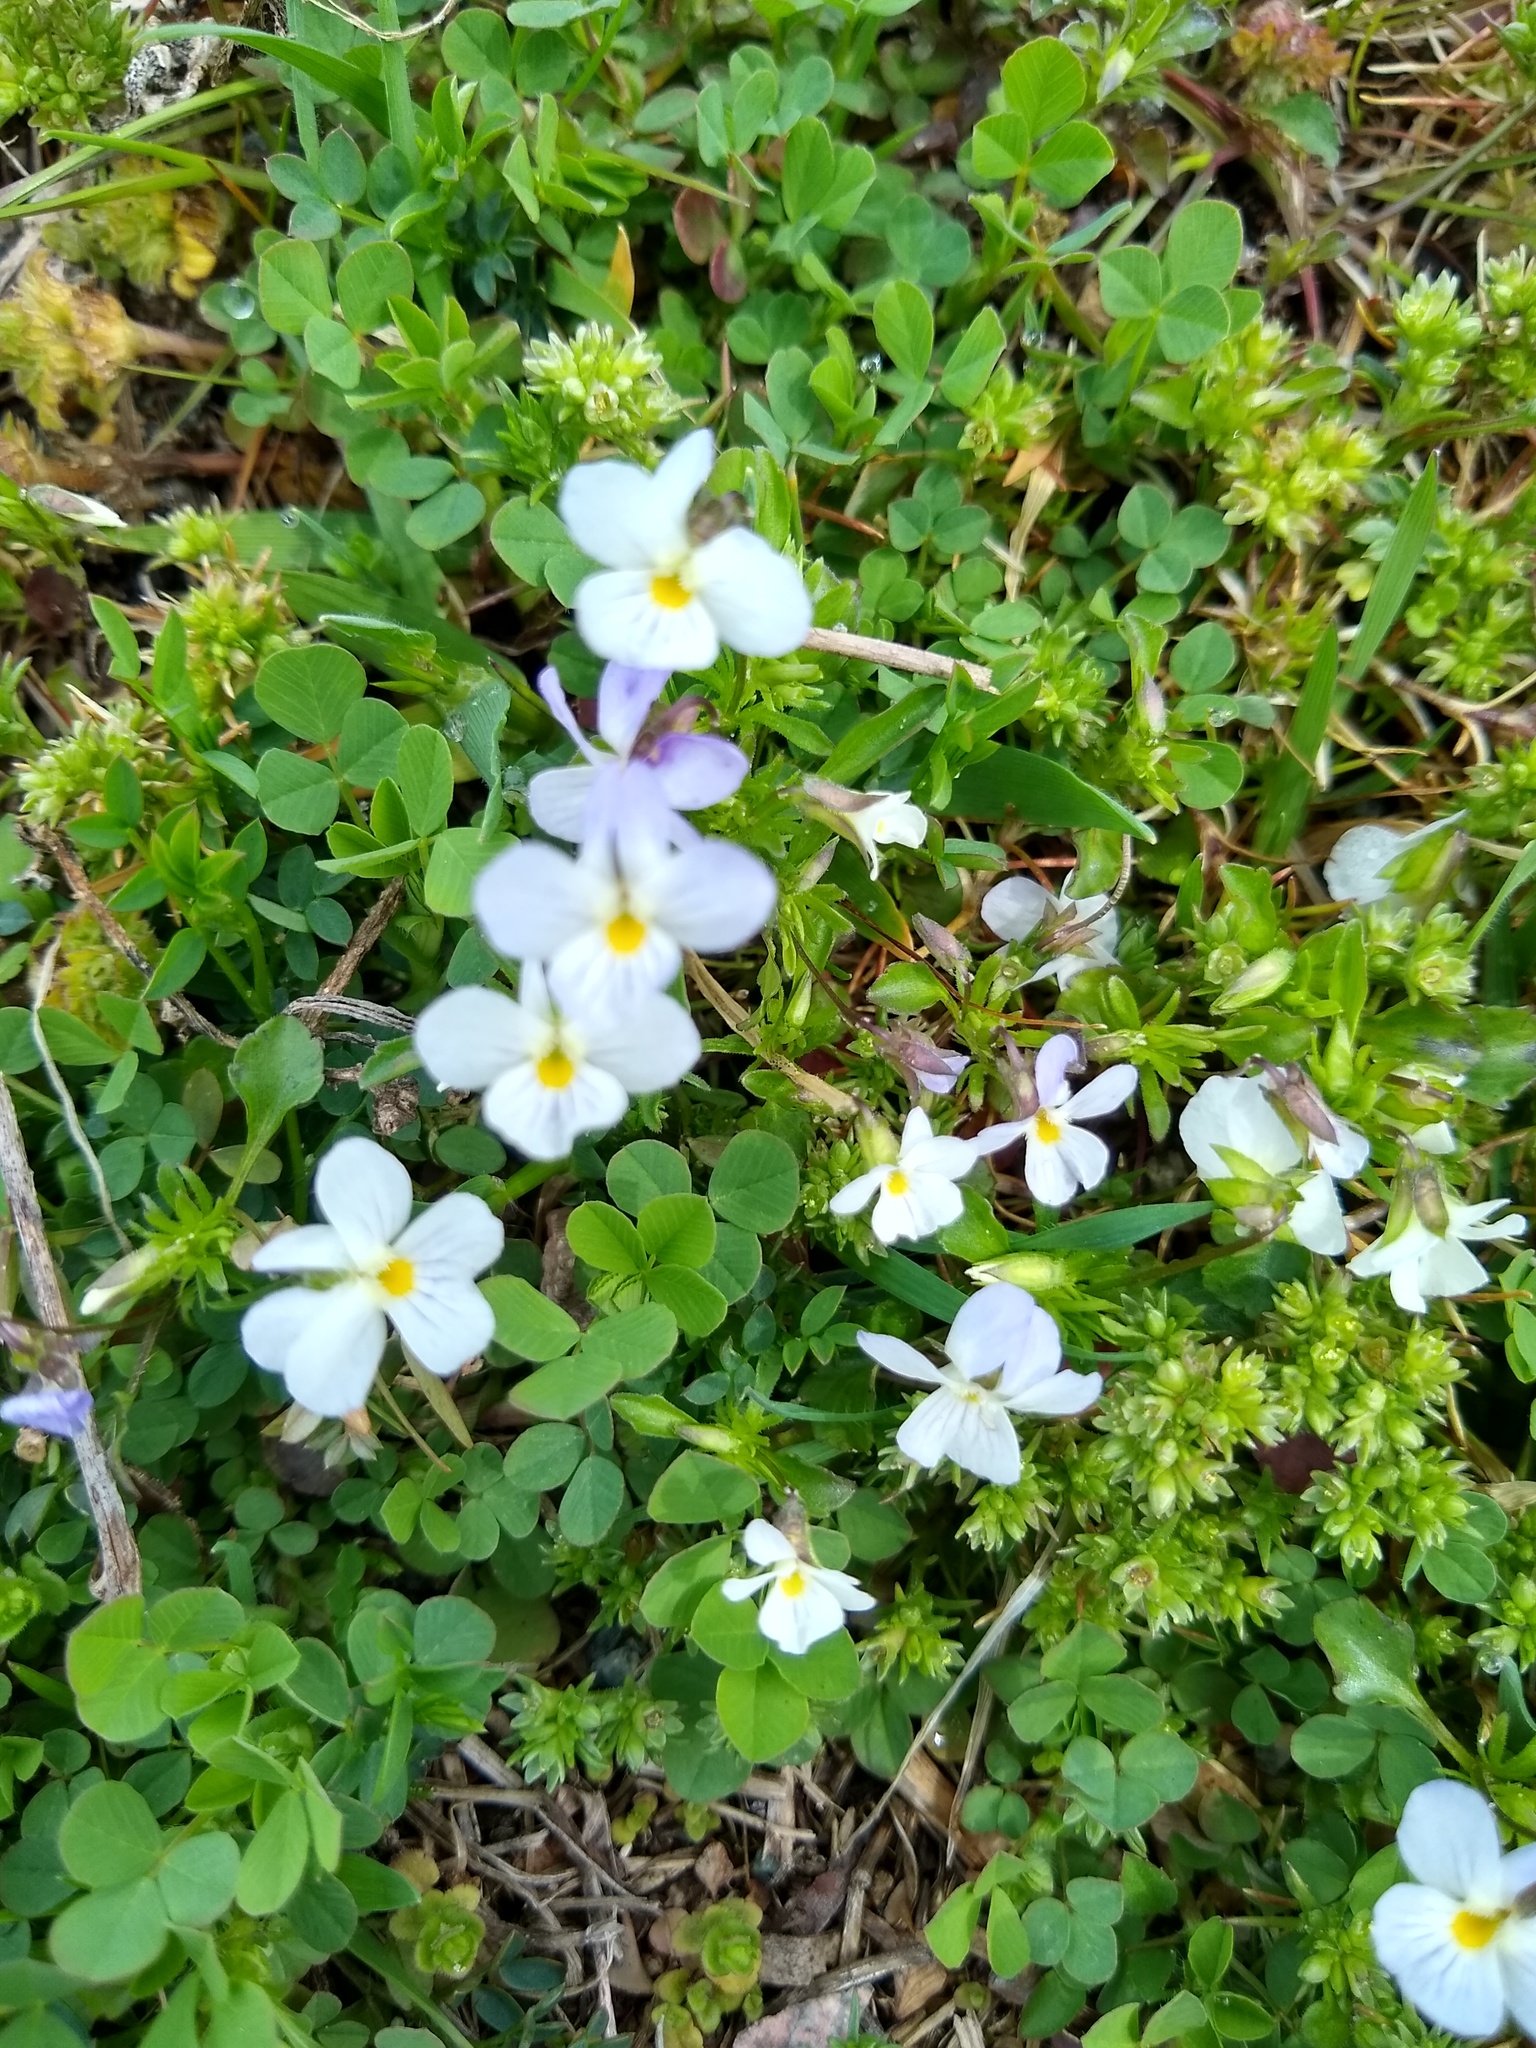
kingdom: Plantae
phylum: Tracheophyta
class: Magnoliopsida
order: Malpighiales
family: Violaceae
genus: Viola
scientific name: Viola rafinesquei
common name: American field pansy
